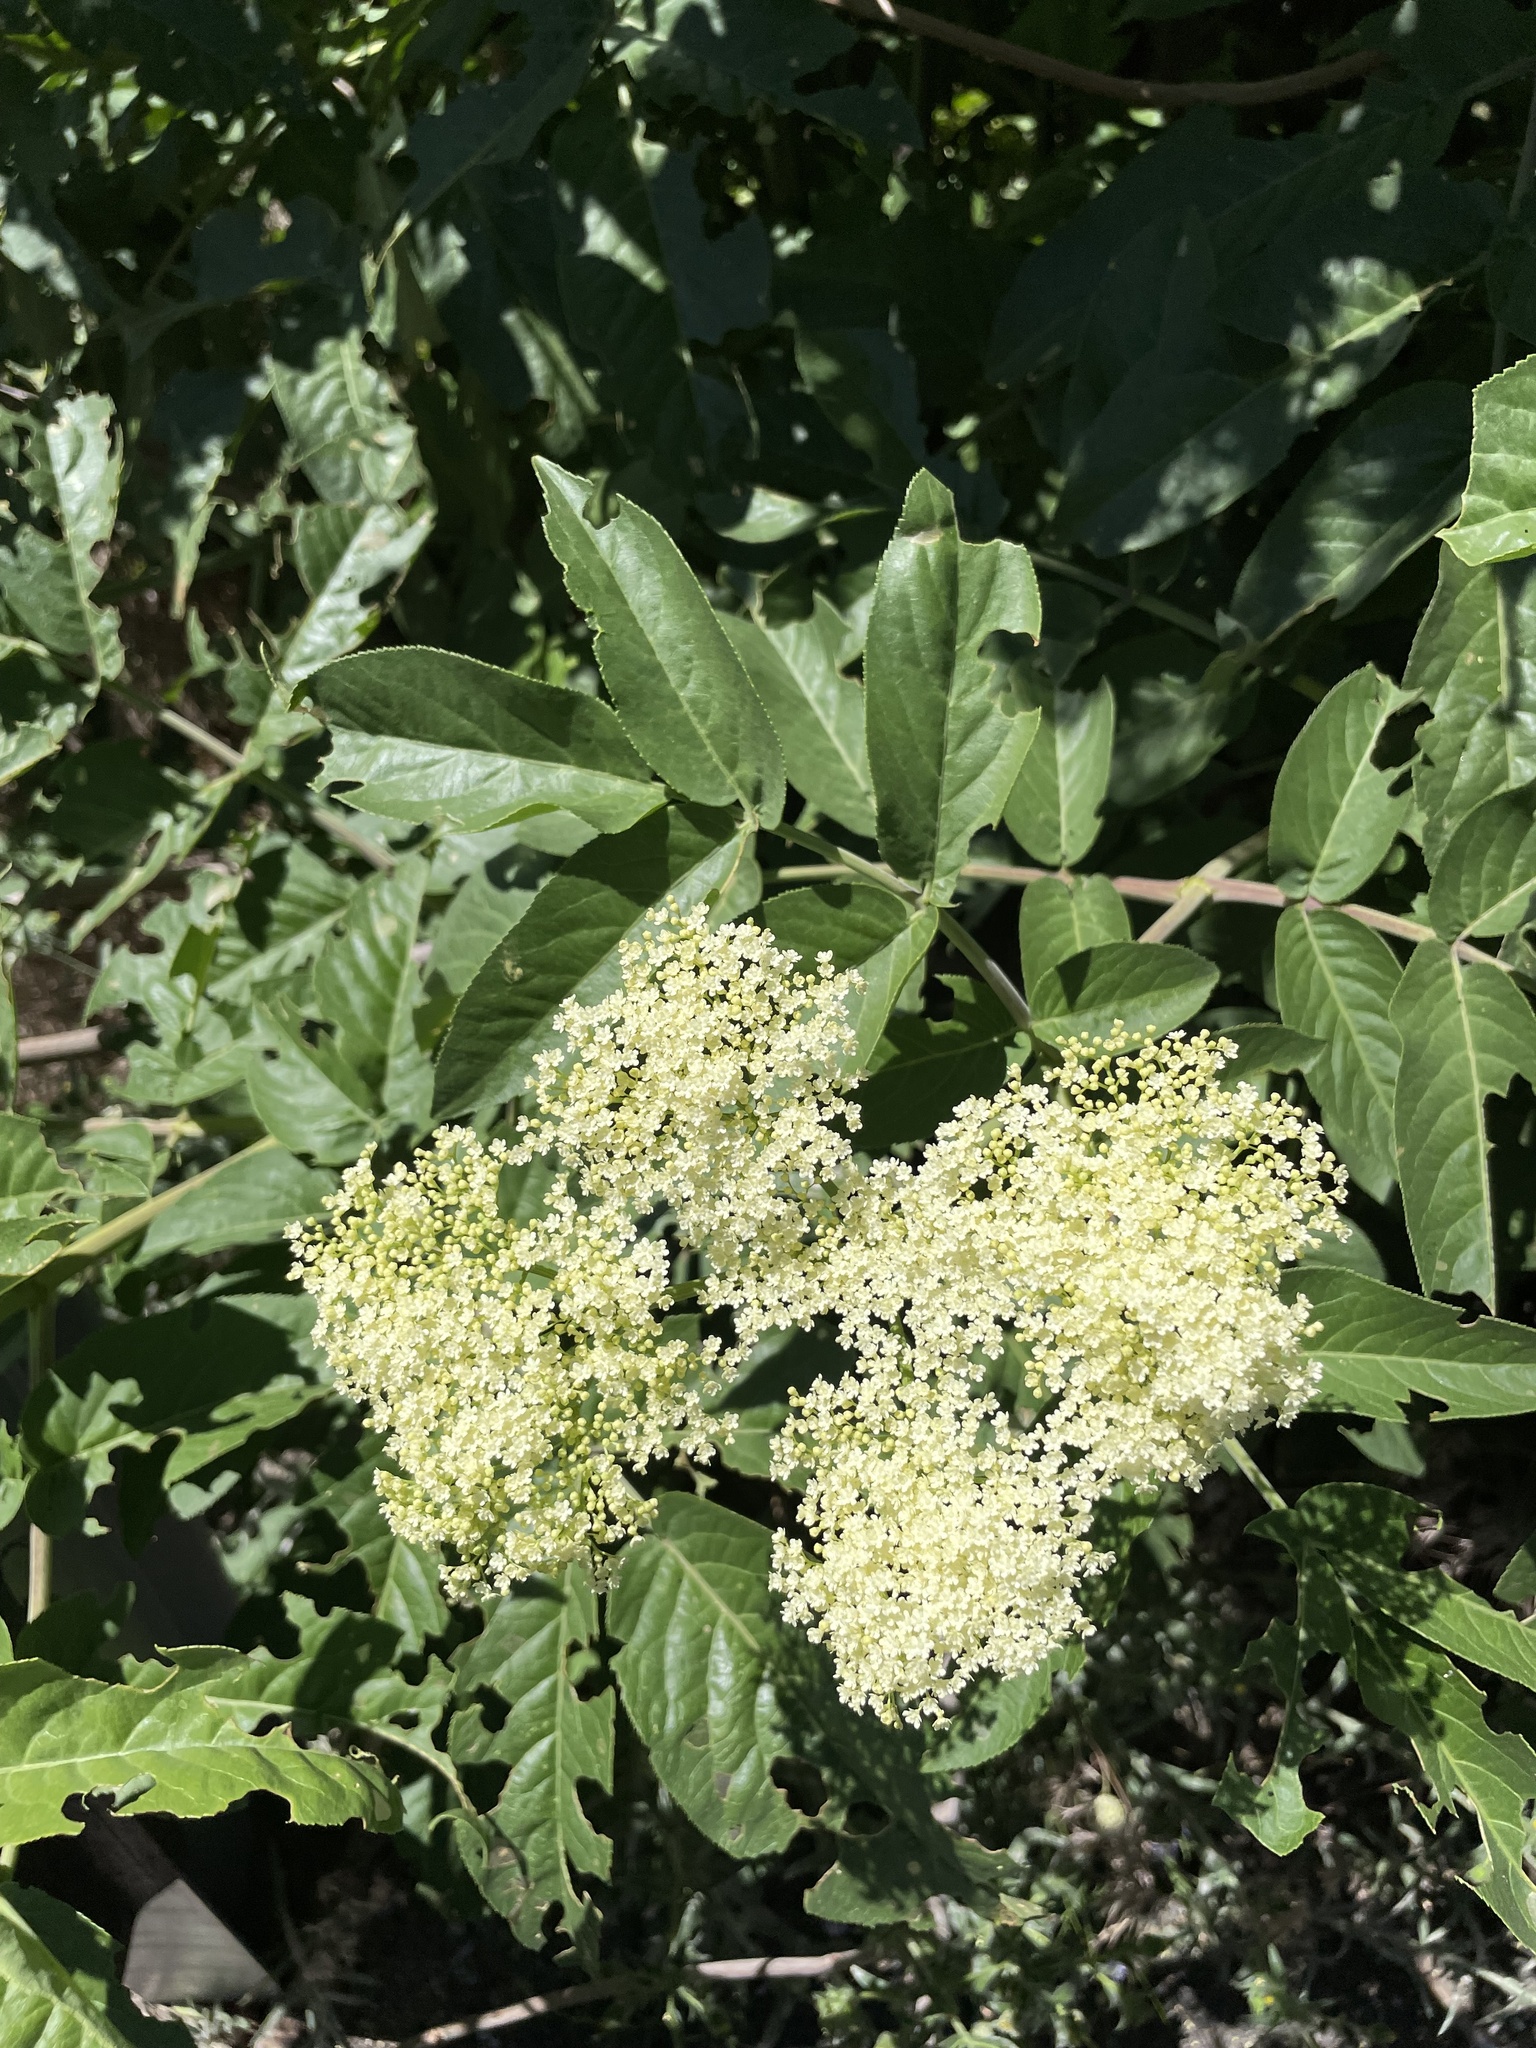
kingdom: Plantae
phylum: Tracheophyta
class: Magnoliopsida
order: Dipsacales
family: Viburnaceae
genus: Sambucus
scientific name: Sambucus cerulea
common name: Blue elder
